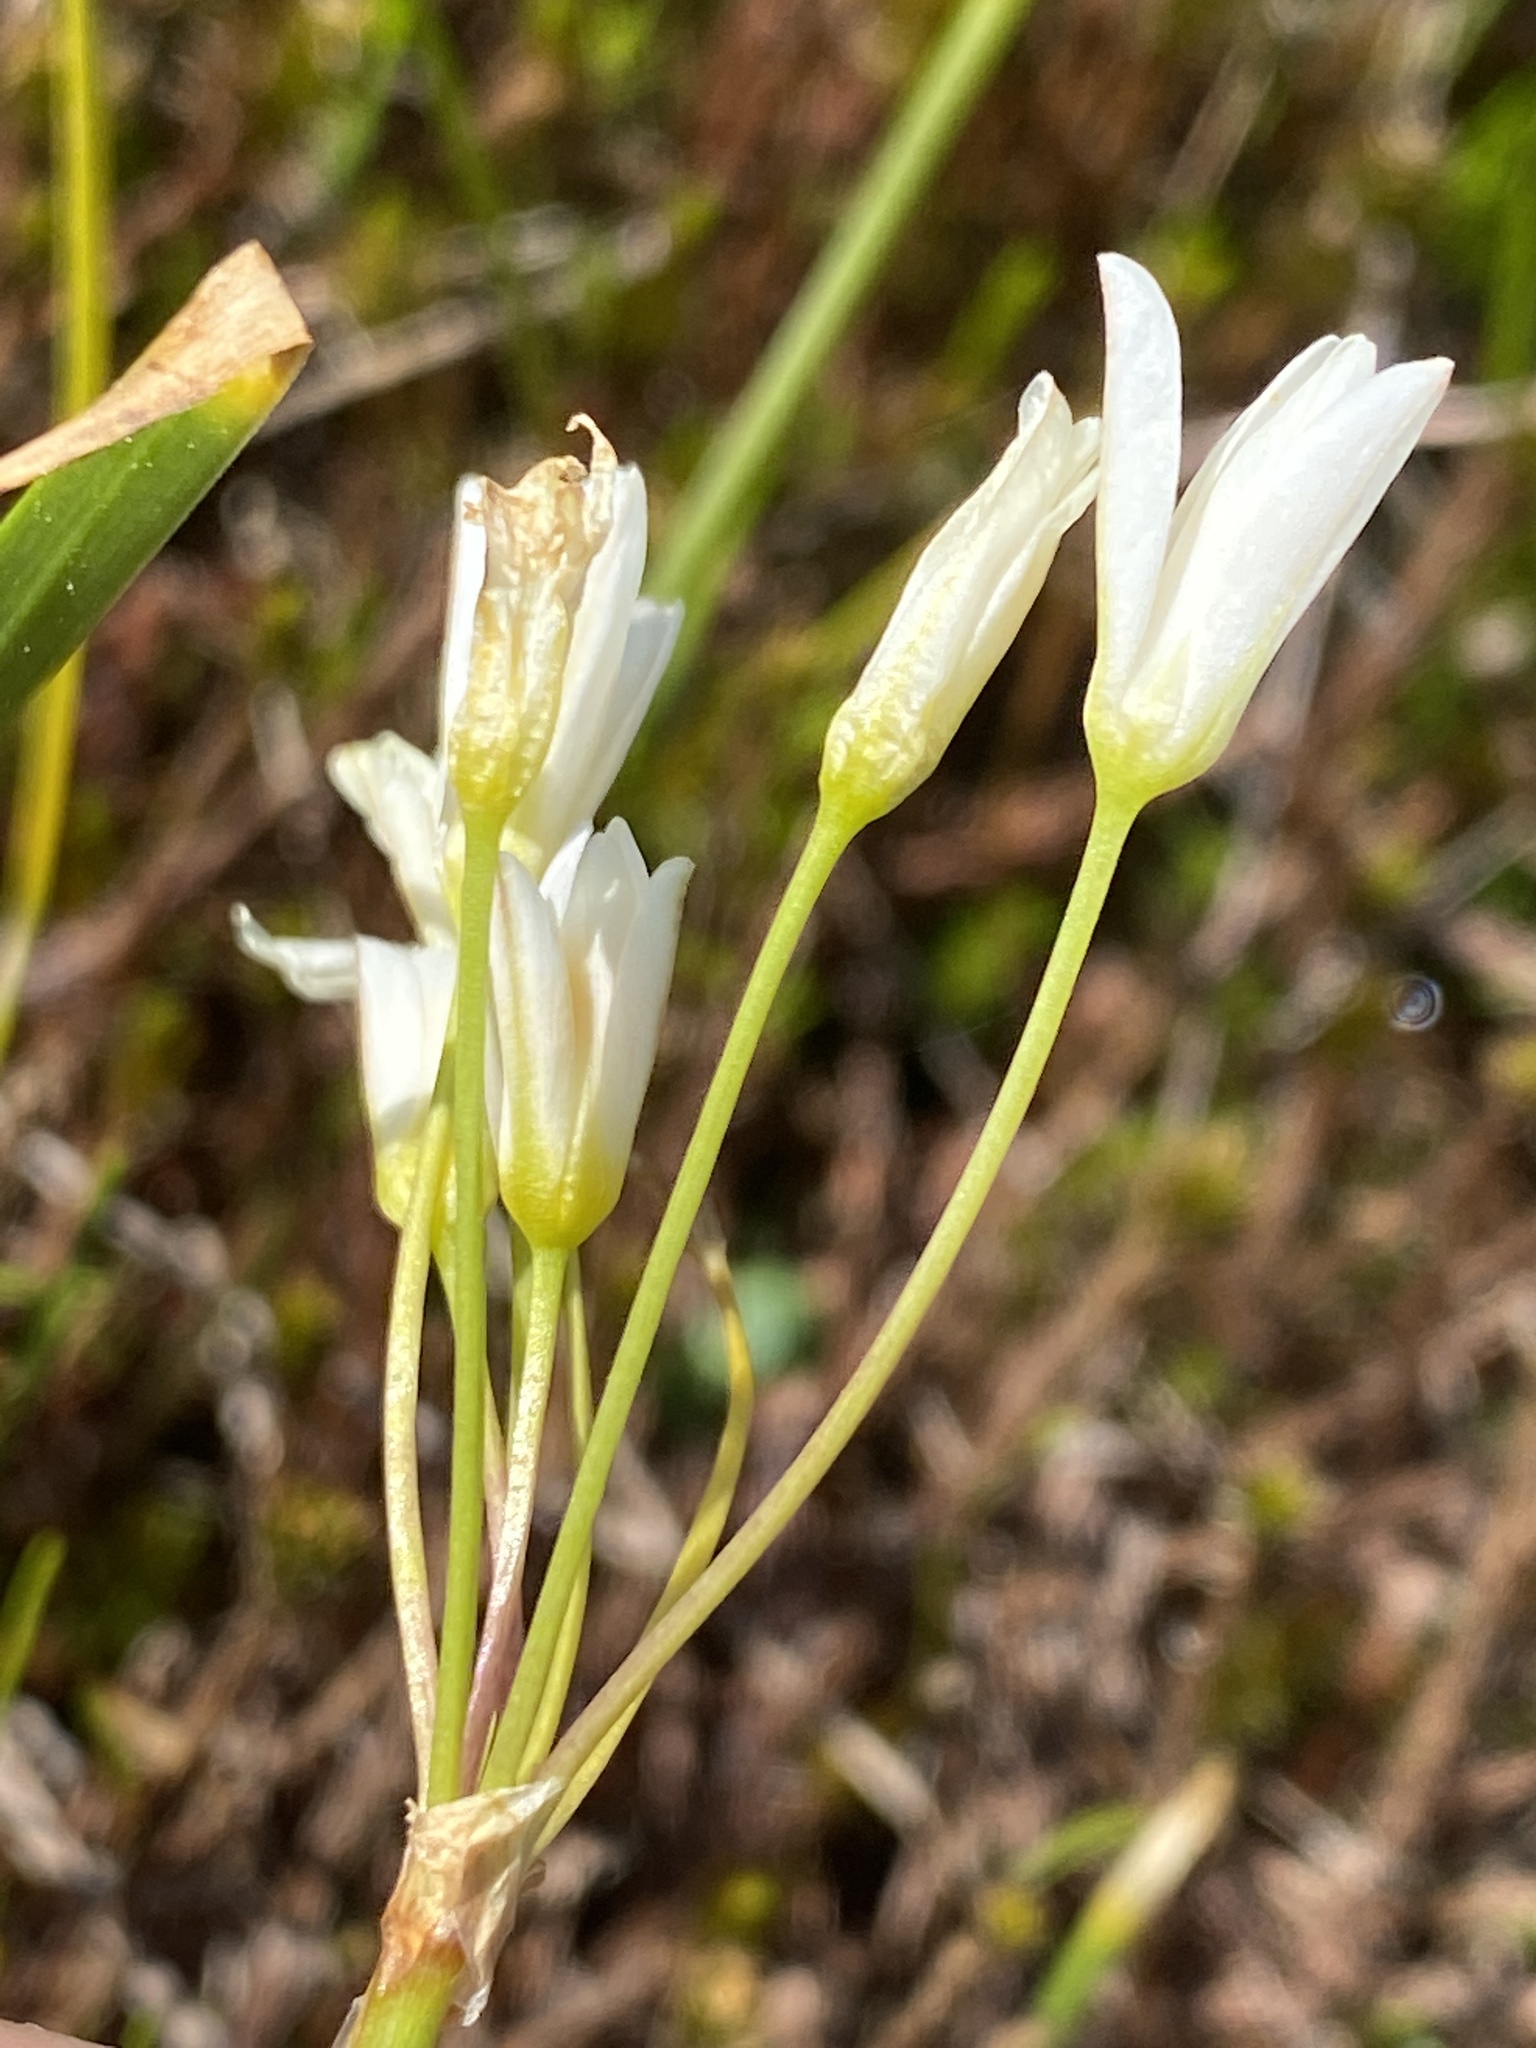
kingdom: Plantae
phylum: Tracheophyta
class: Liliopsida
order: Asparagales
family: Amaryllidaceae
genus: Nothoscordum
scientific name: Nothoscordum bivalve
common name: Crow-poison
